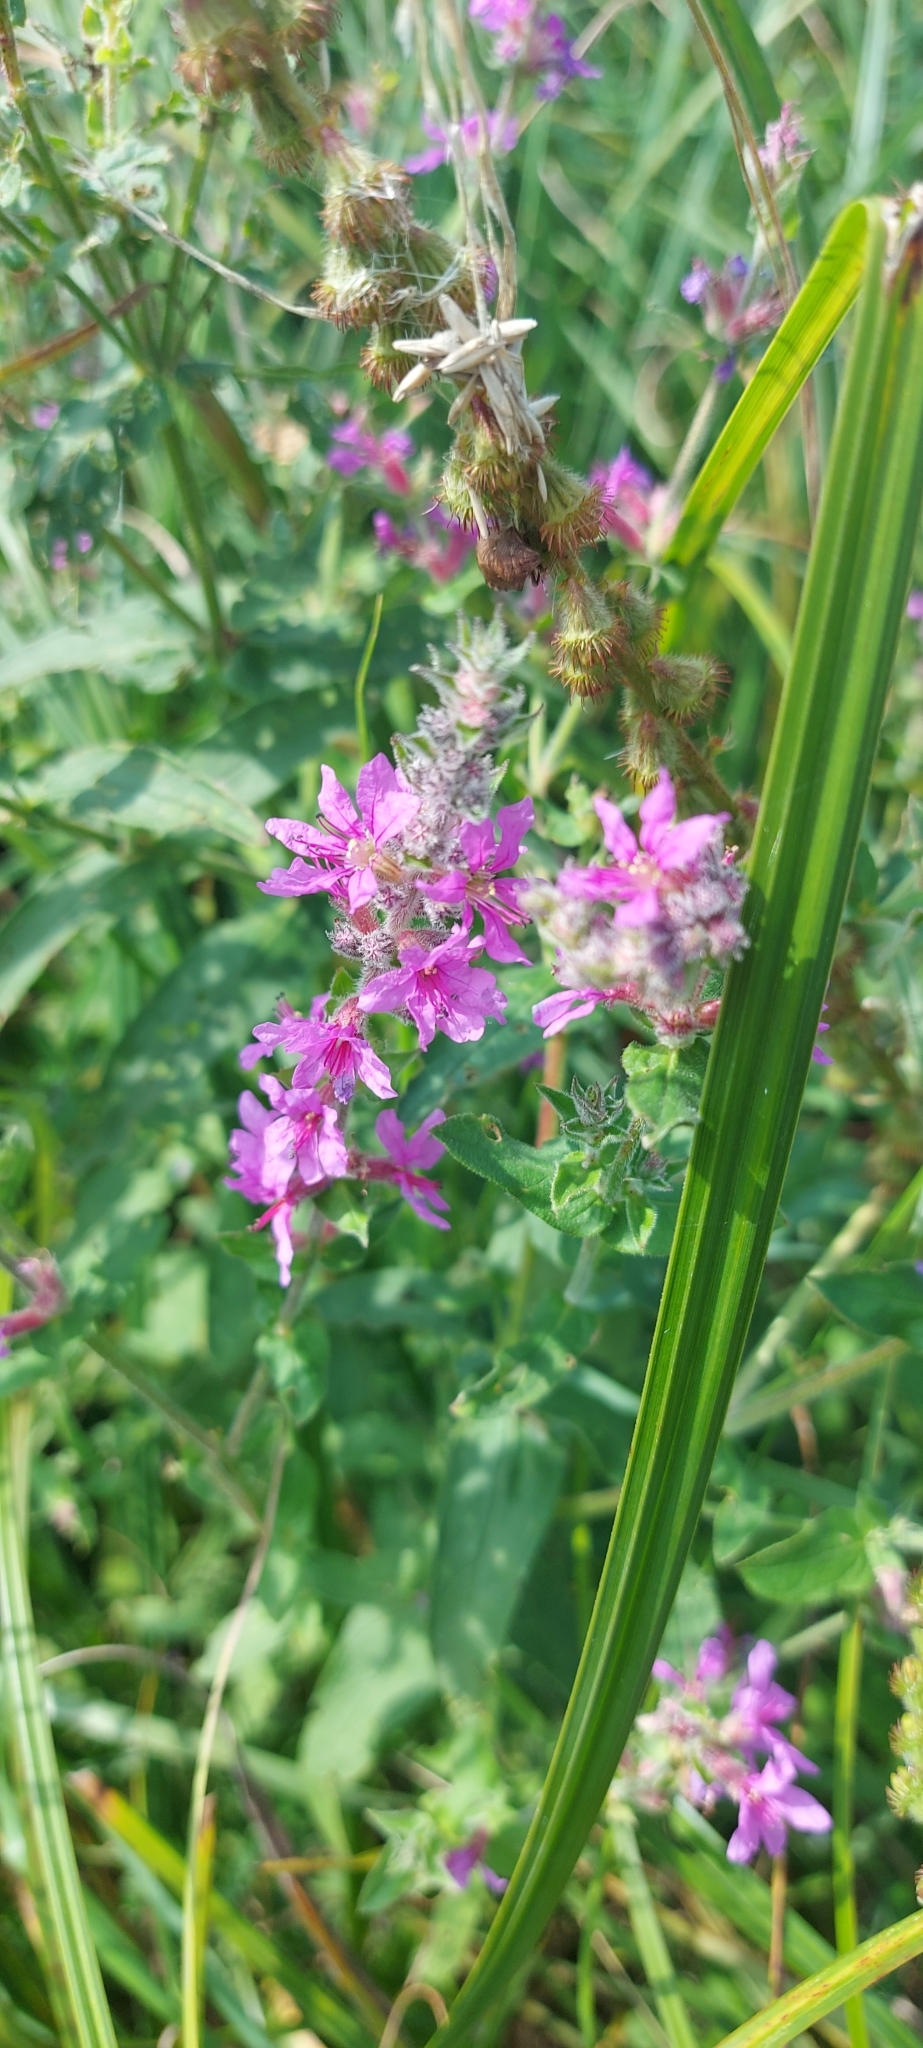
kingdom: Plantae
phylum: Tracheophyta
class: Magnoliopsida
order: Myrtales
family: Lythraceae
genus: Lythrum
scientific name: Lythrum salicaria
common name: Purple loosestrife
